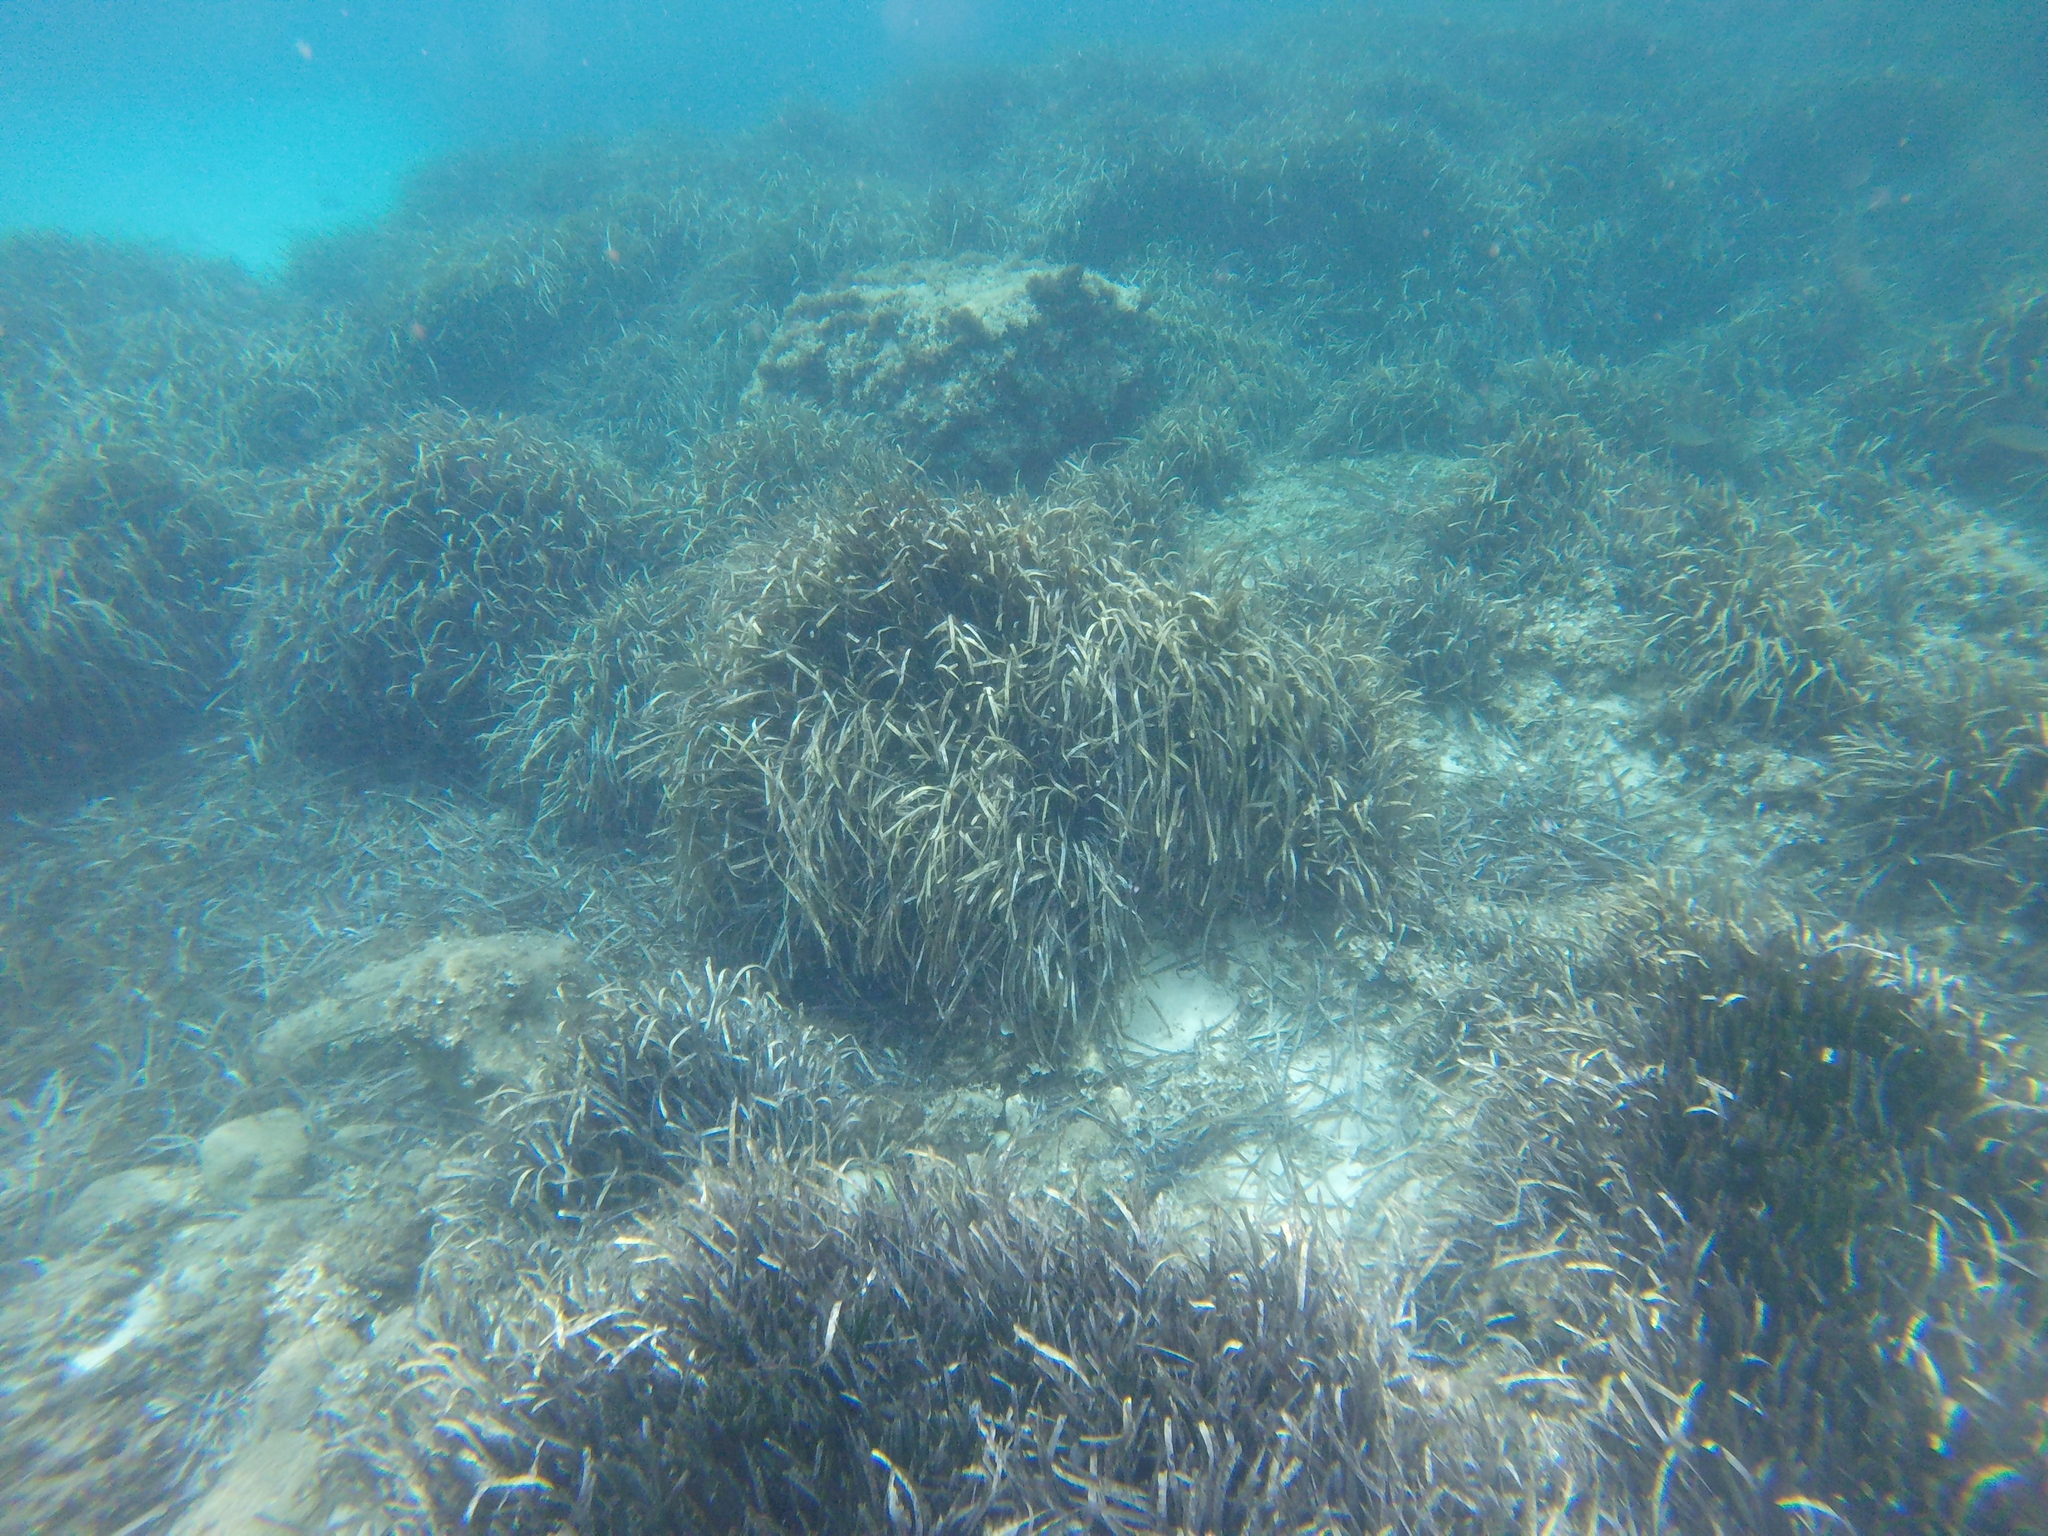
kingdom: Plantae
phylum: Tracheophyta
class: Liliopsida
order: Alismatales
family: Posidoniaceae
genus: Posidonia
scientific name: Posidonia oceanica
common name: Mediterranean tapeweed
